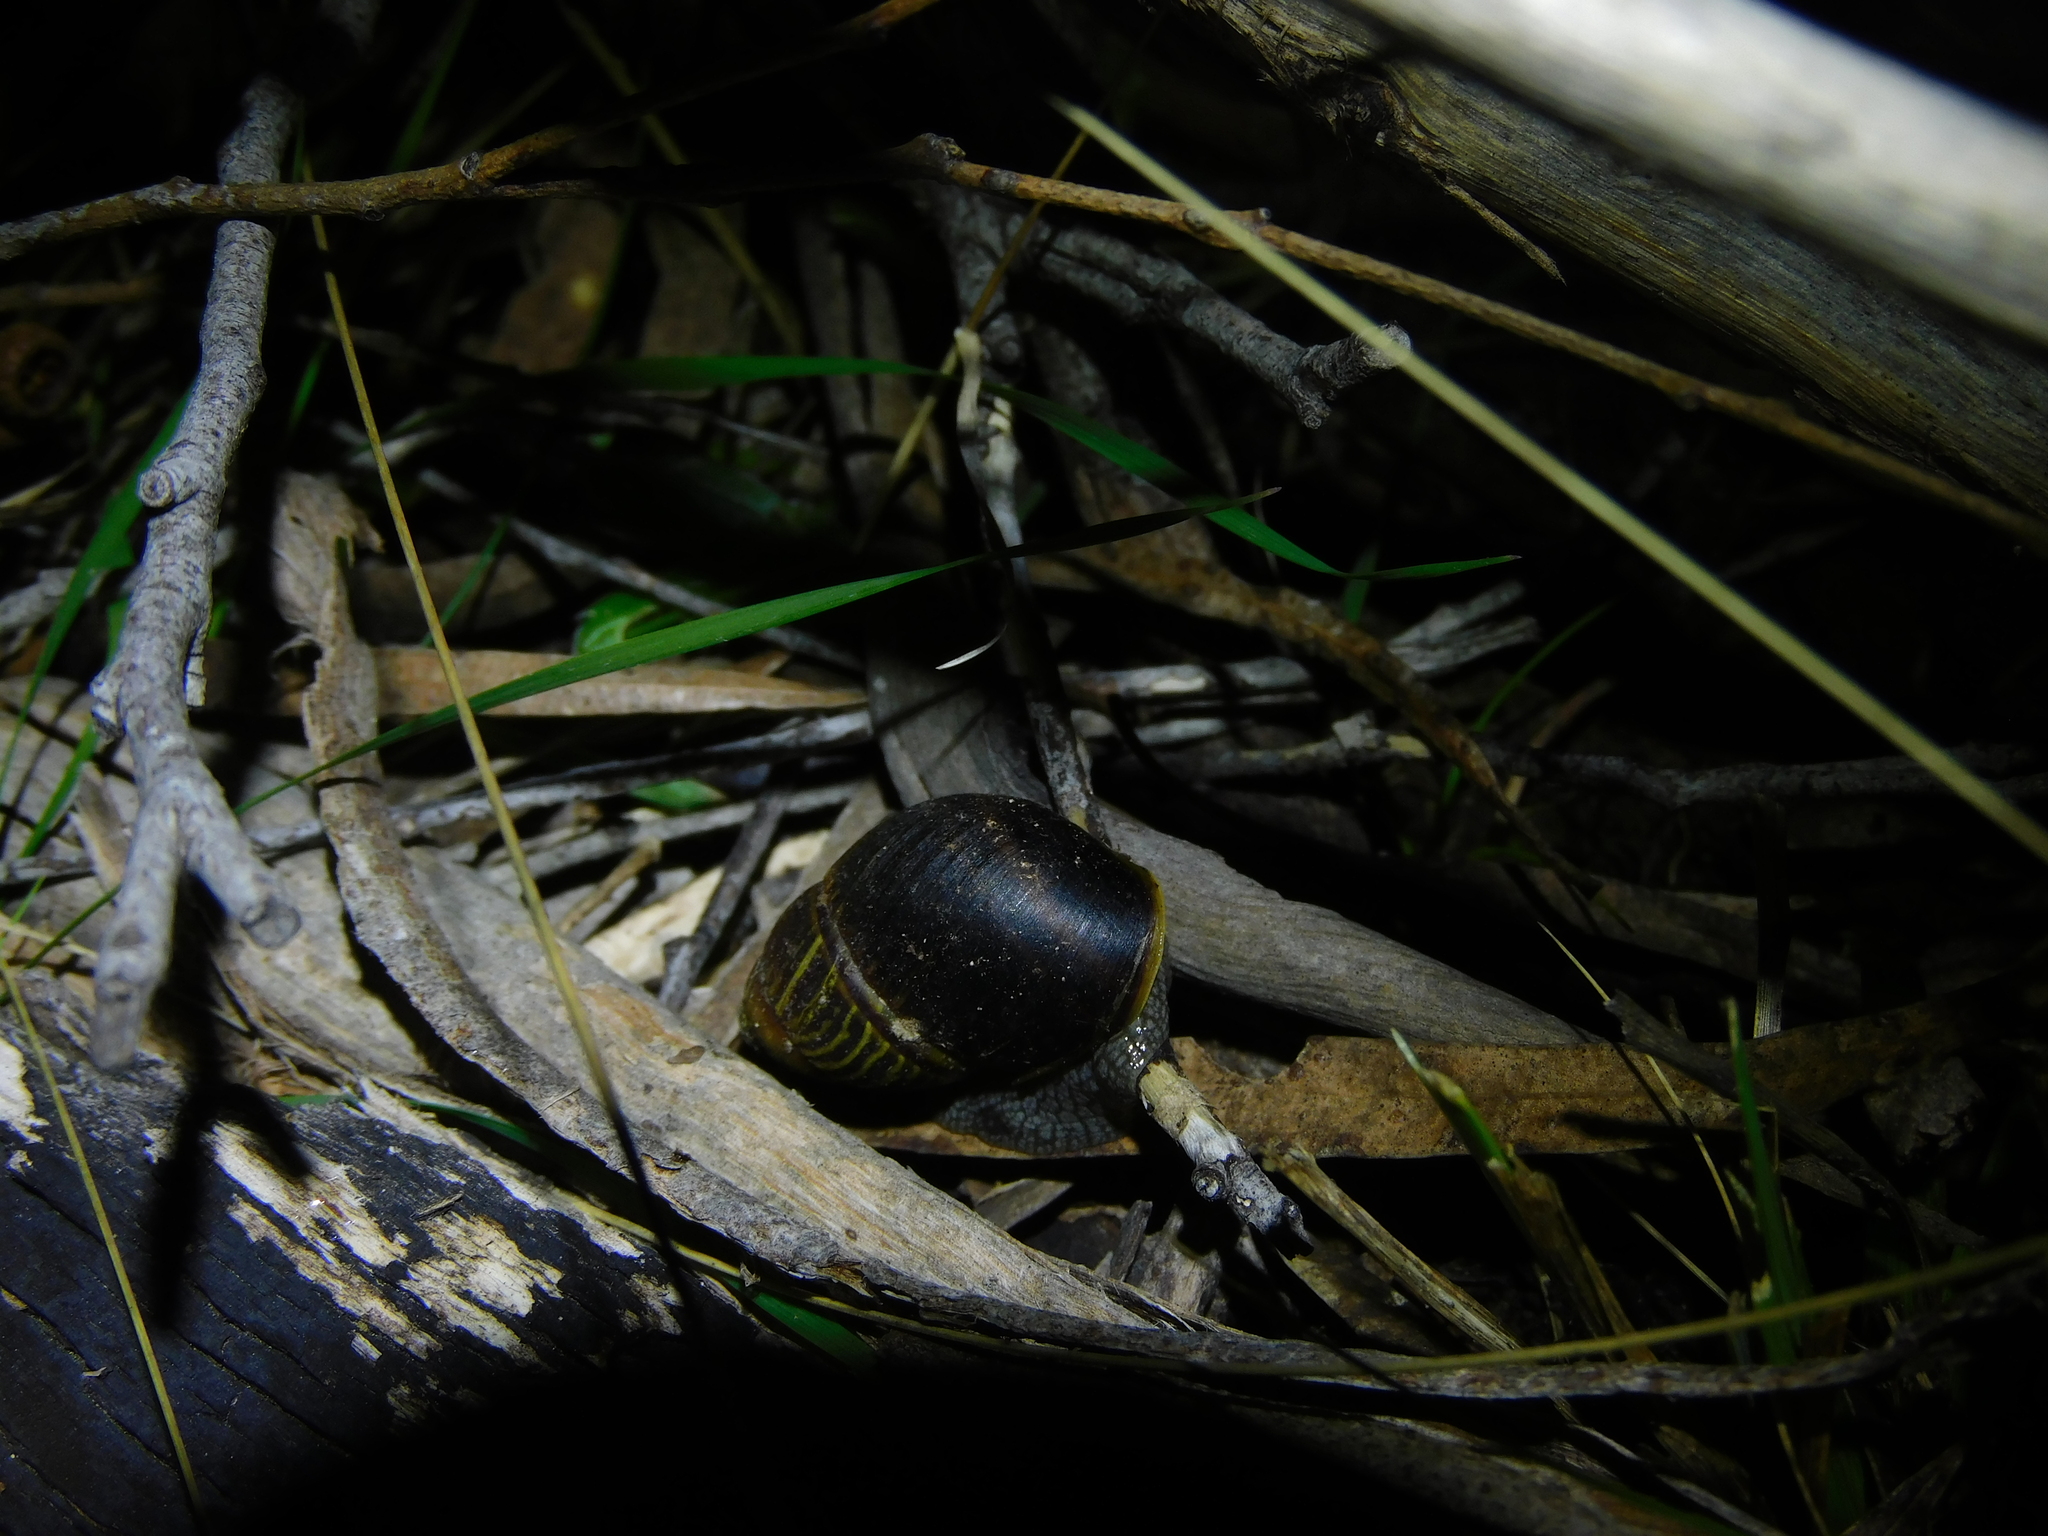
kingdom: Animalia
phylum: Mollusca
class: Gastropoda
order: Stylommatophora
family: Caryodidae
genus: Caryodes
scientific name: Caryodes dufresnii
